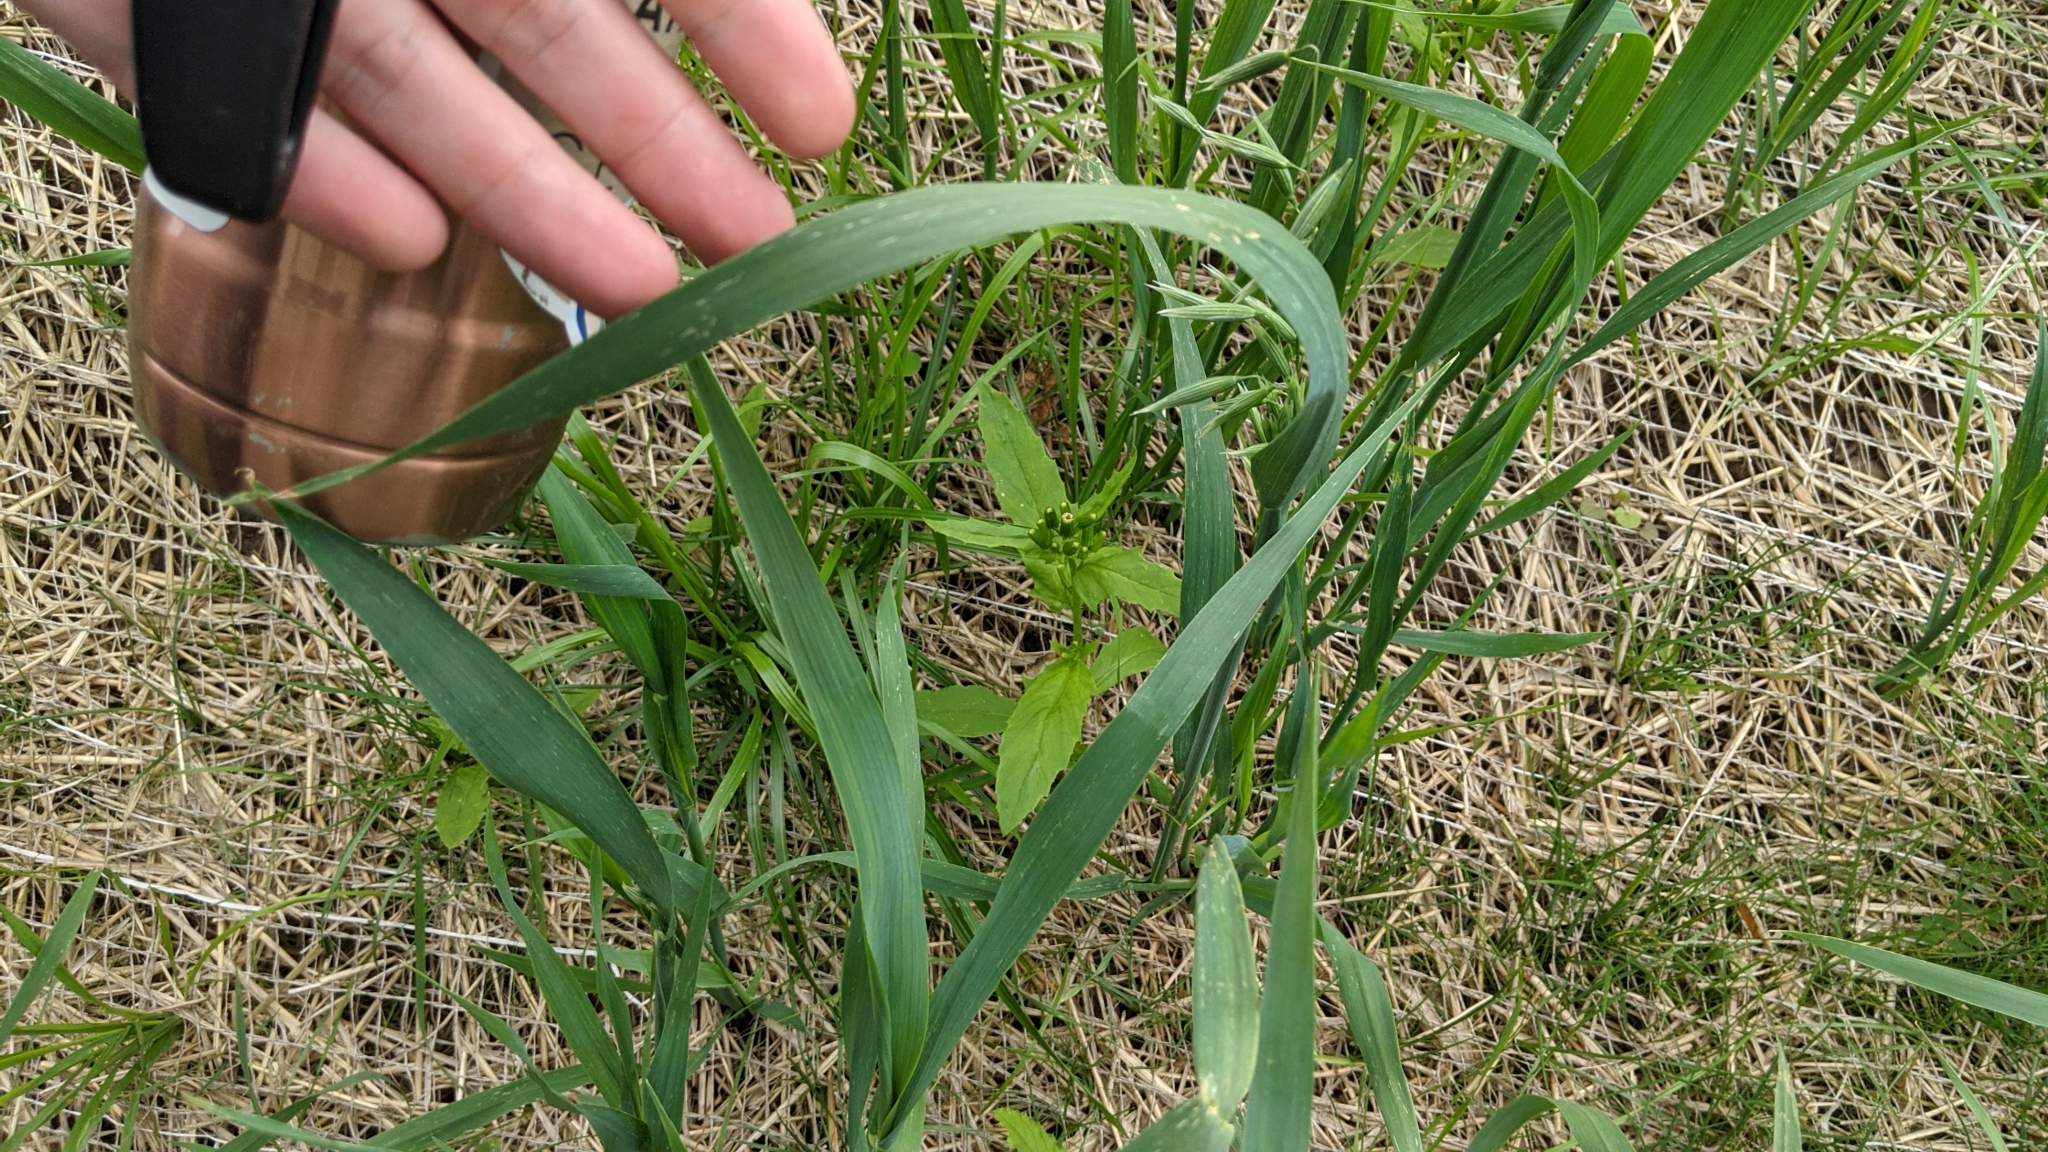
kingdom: Plantae
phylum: Tracheophyta
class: Liliopsida
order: Poales
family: Poaceae
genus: Avena
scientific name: Avena sativa
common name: Oat
